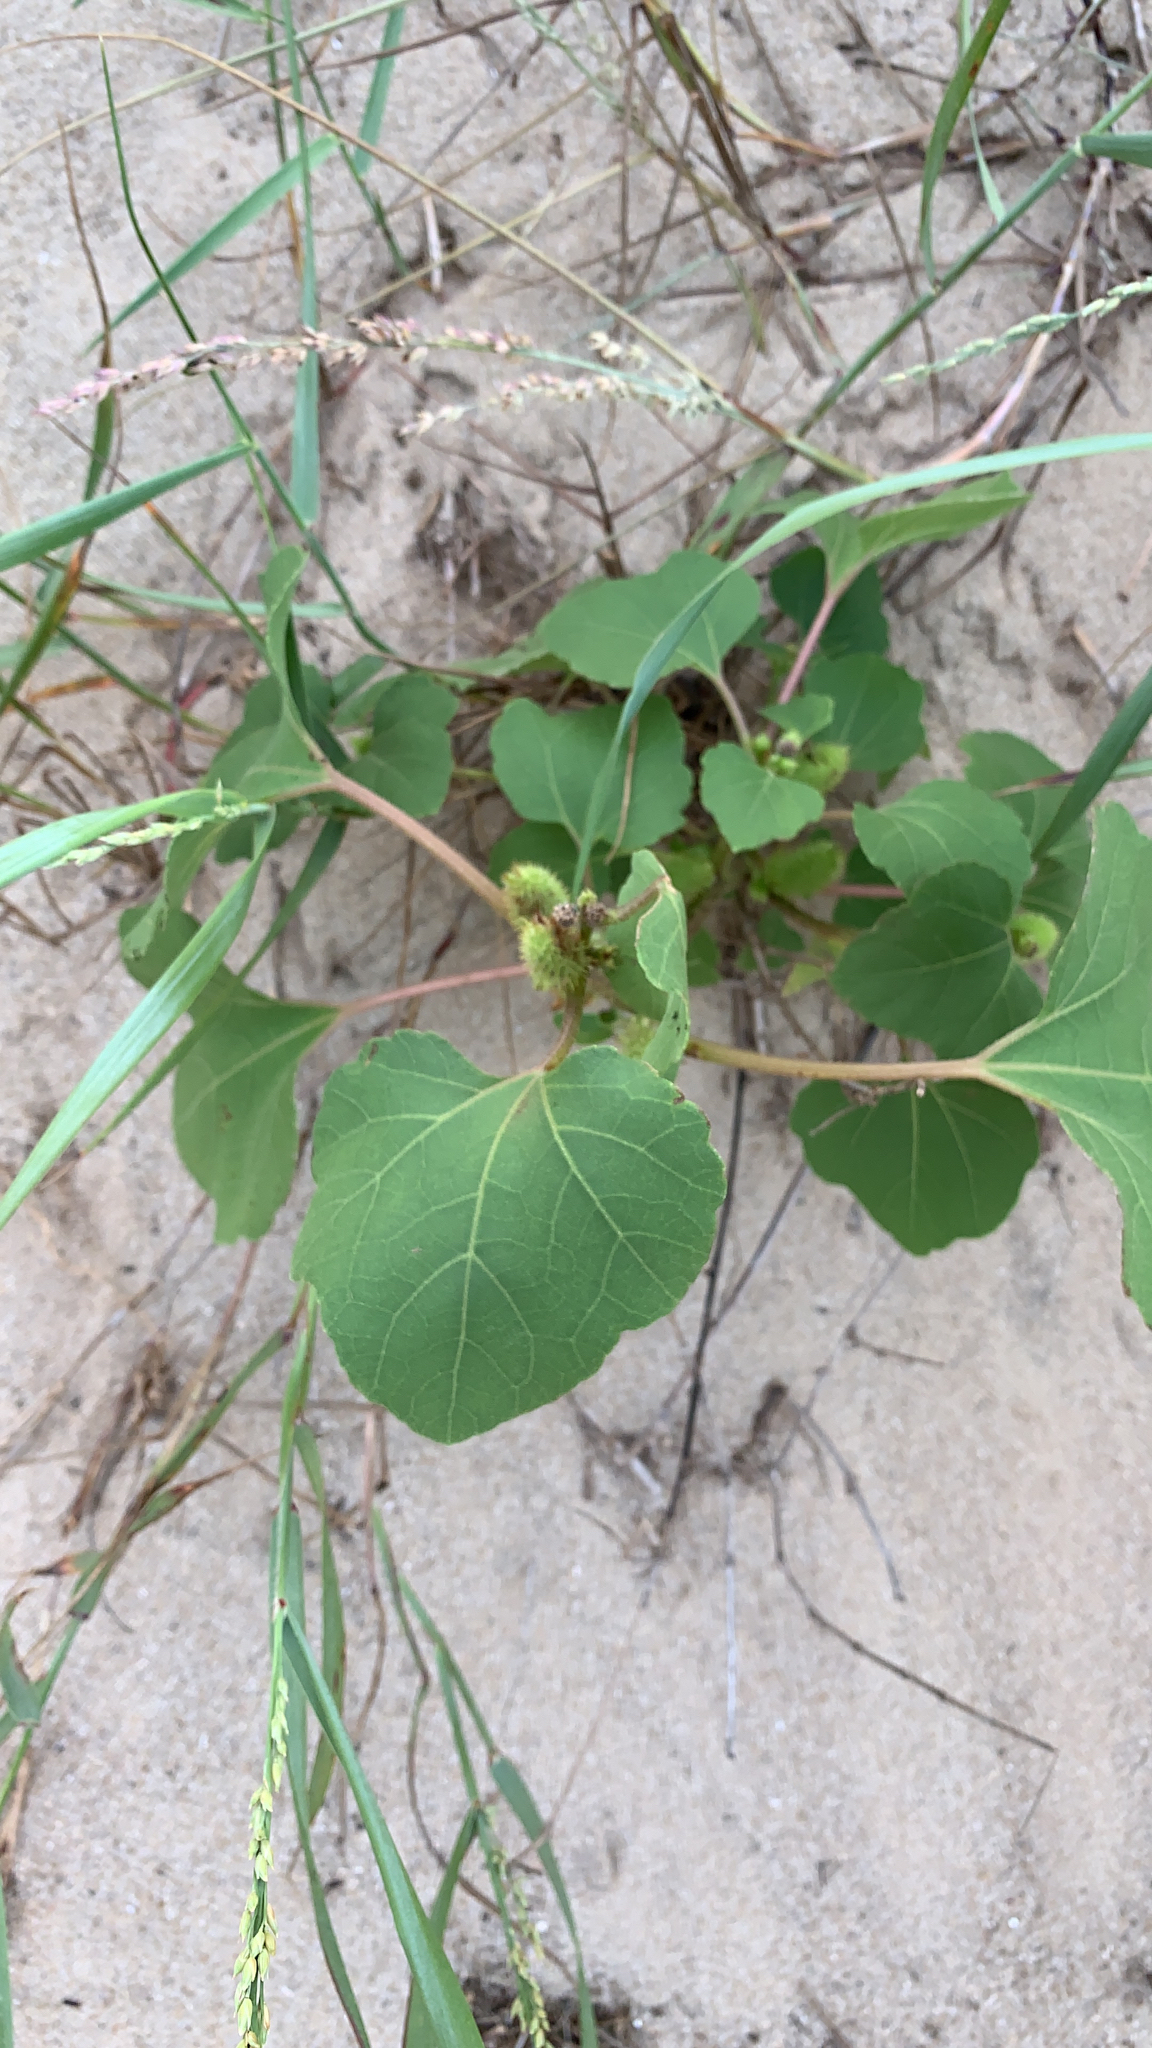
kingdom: Plantae
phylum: Tracheophyta
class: Magnoliopsida
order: Asterales
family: Asteraceae
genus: Xanthium
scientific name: Xanthium strumarium
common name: Rough cocklebur
